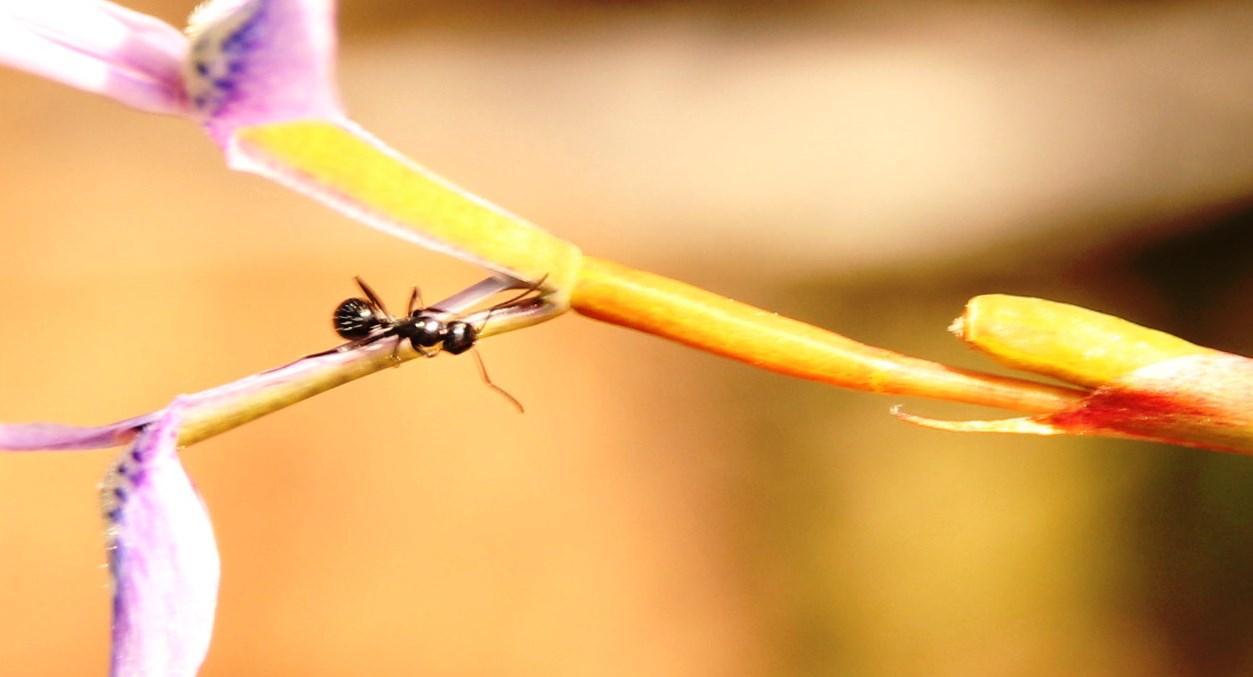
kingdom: Plantae
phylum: Tracheophyta
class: Liliopsida
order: Asparagales
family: Iridaceae
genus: Moraea
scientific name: Moraea tripetala
